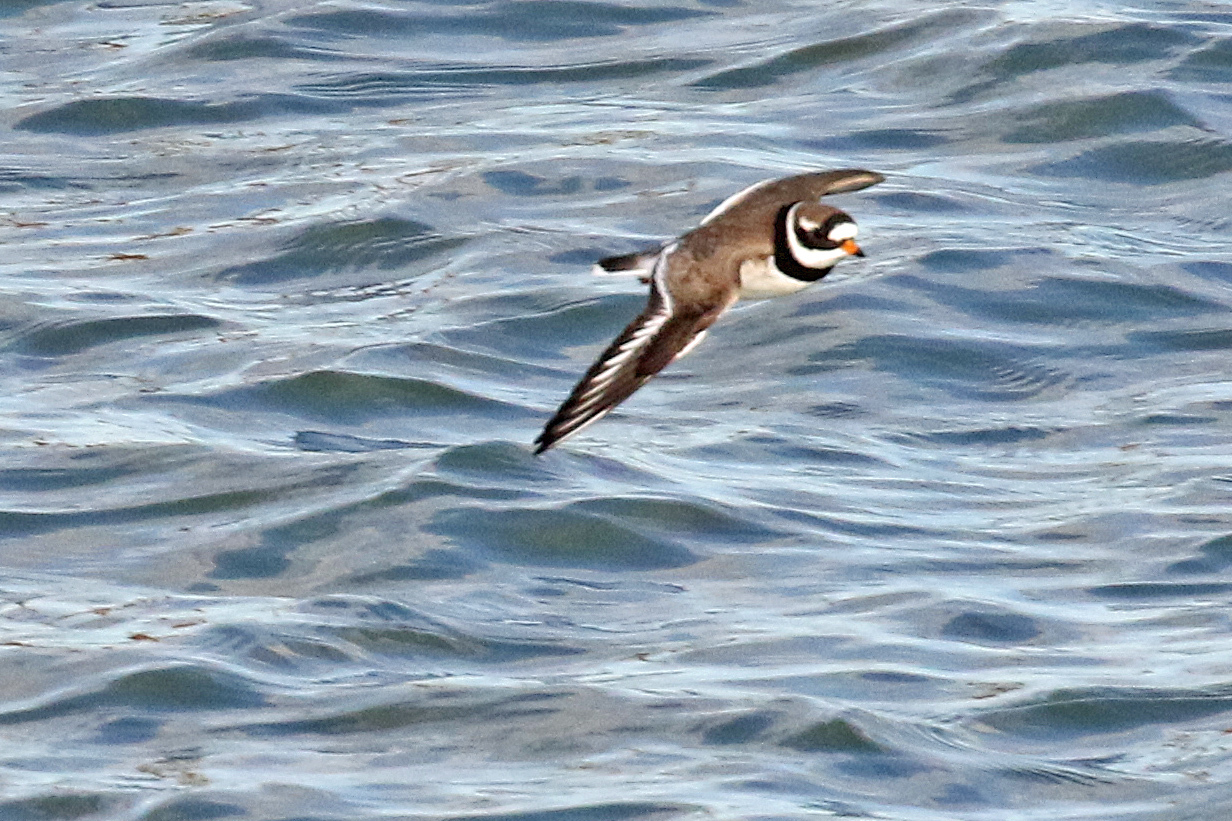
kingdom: Animalia
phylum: Chordata
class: Aves
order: Charadriiformes
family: Charadriidae
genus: Charadrius
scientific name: Charadrius hiaticula
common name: Common ringed plover
